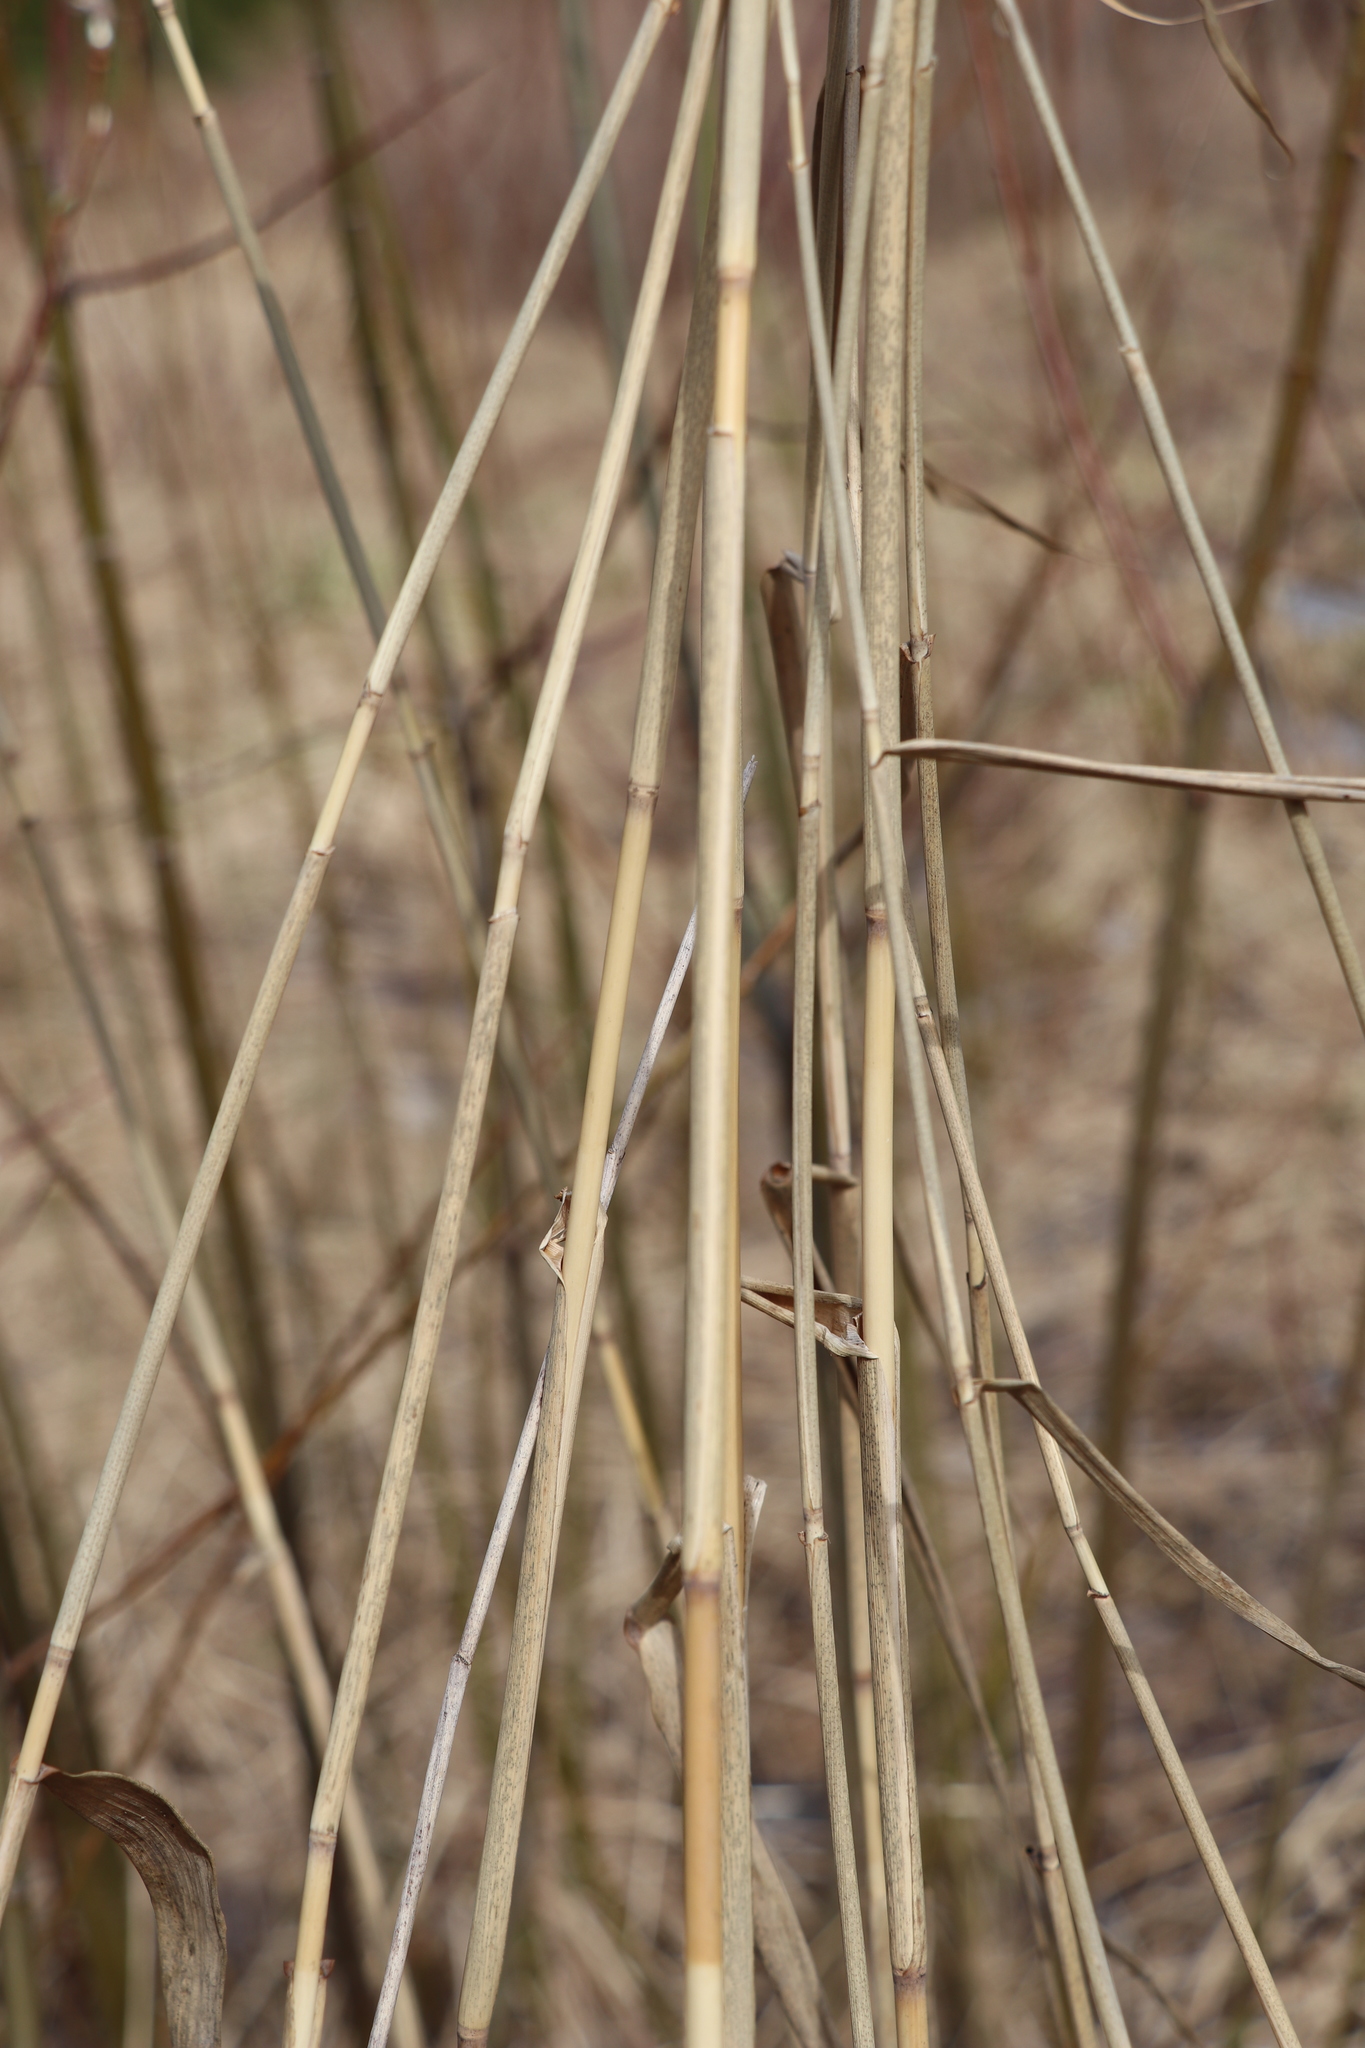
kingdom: Plantae
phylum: Tracheophyta
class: Liliopsida
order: Poales
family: Poaceae
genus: Phragmites
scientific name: Phragmites australis
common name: Common reed
